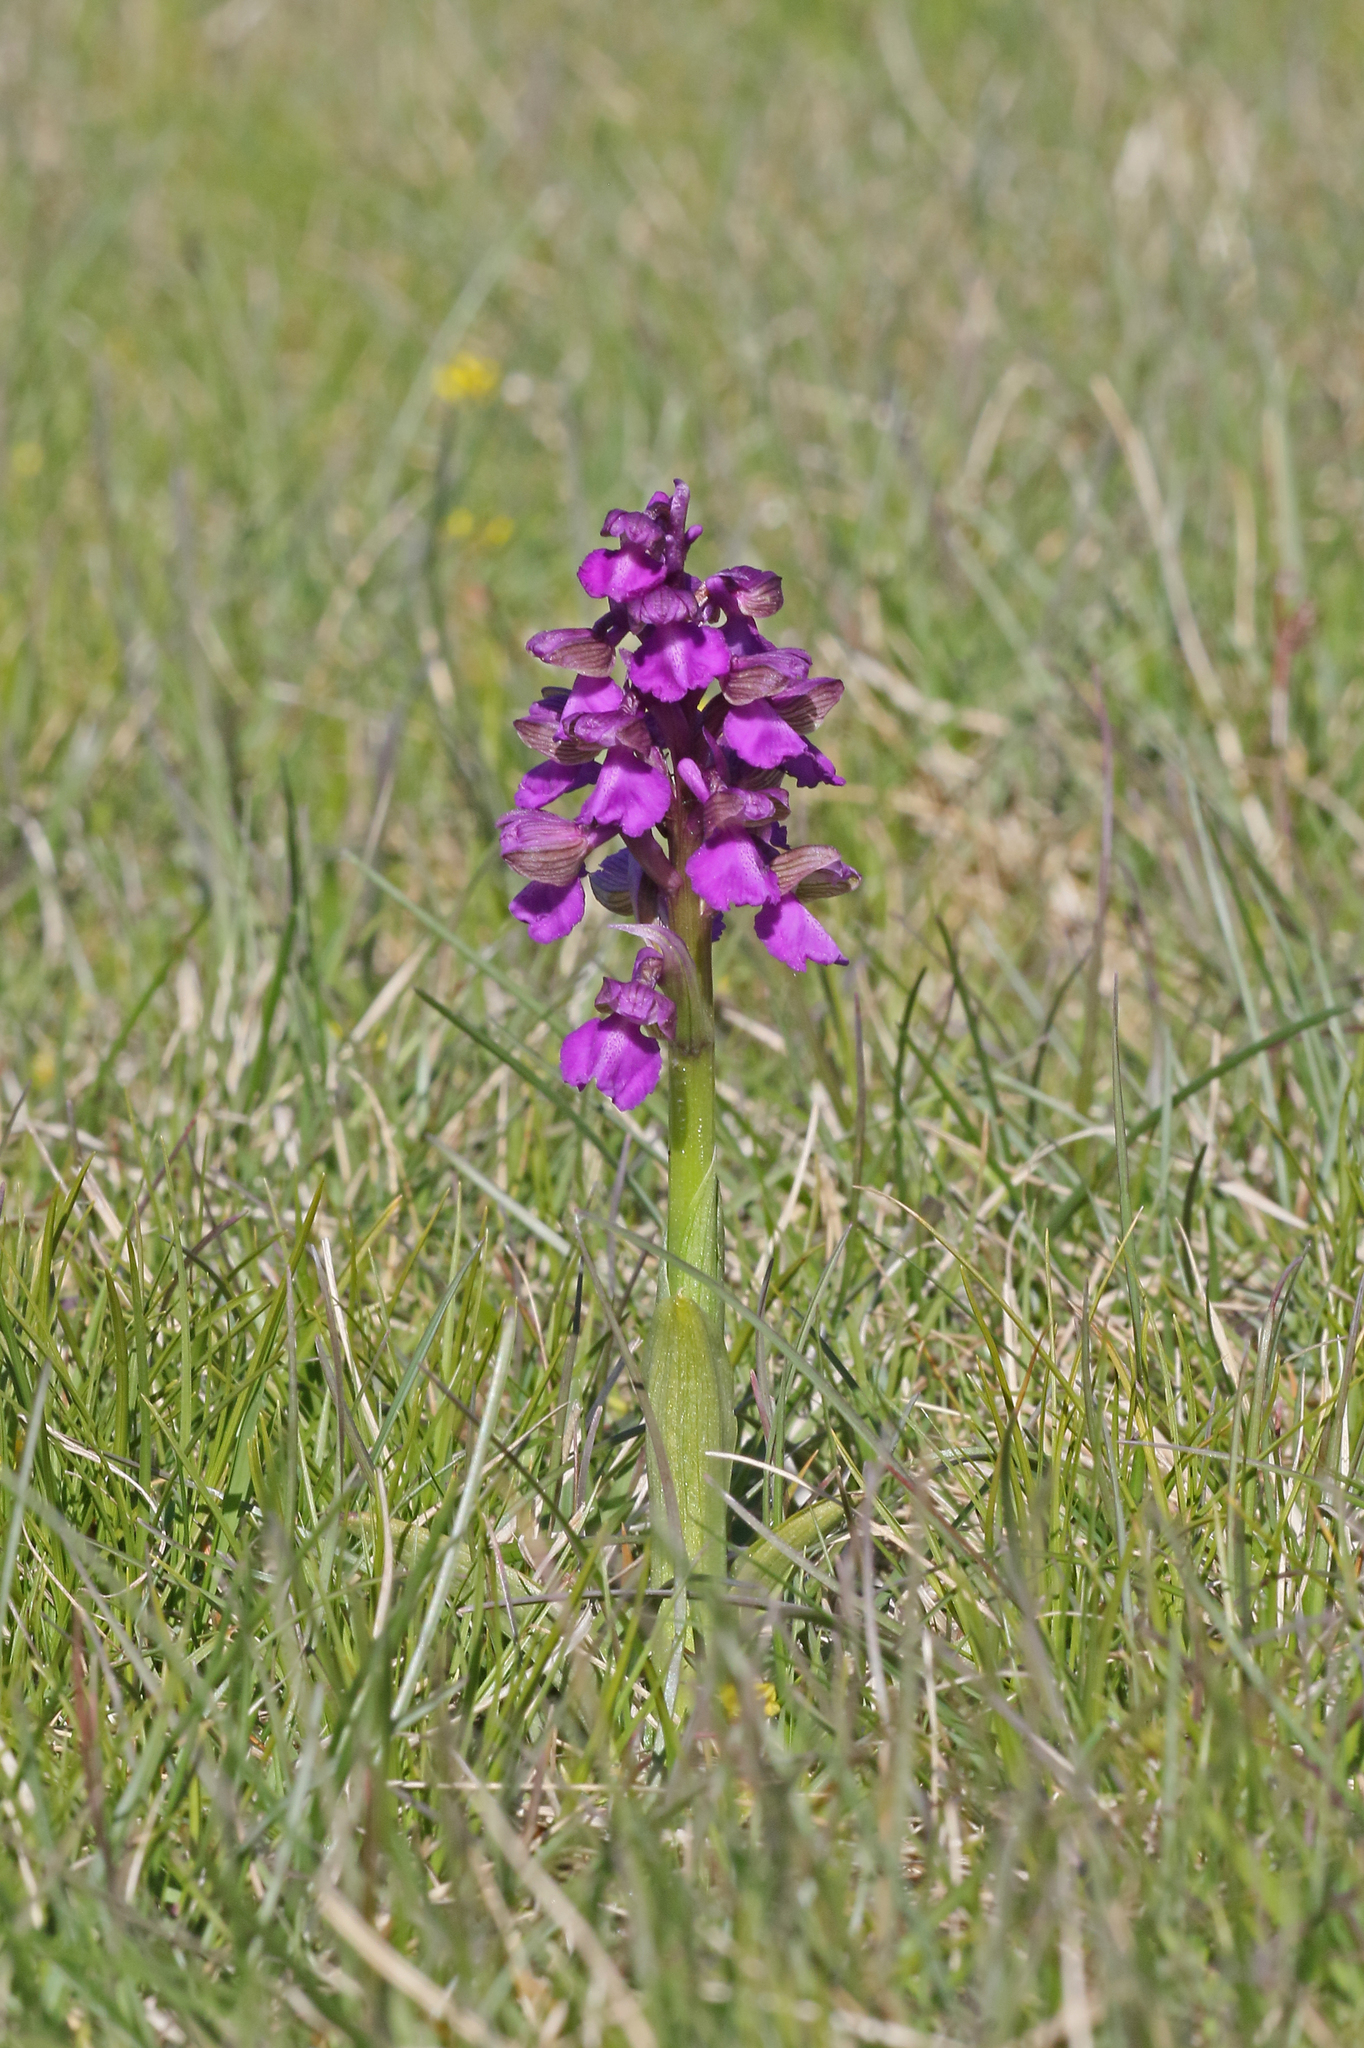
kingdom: Plantae
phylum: Tracheophyta
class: Liliopsida
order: Asparagales
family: Orchidaceae
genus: Anacamptis
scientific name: Anacamptis morio
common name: Green-winged orchid
